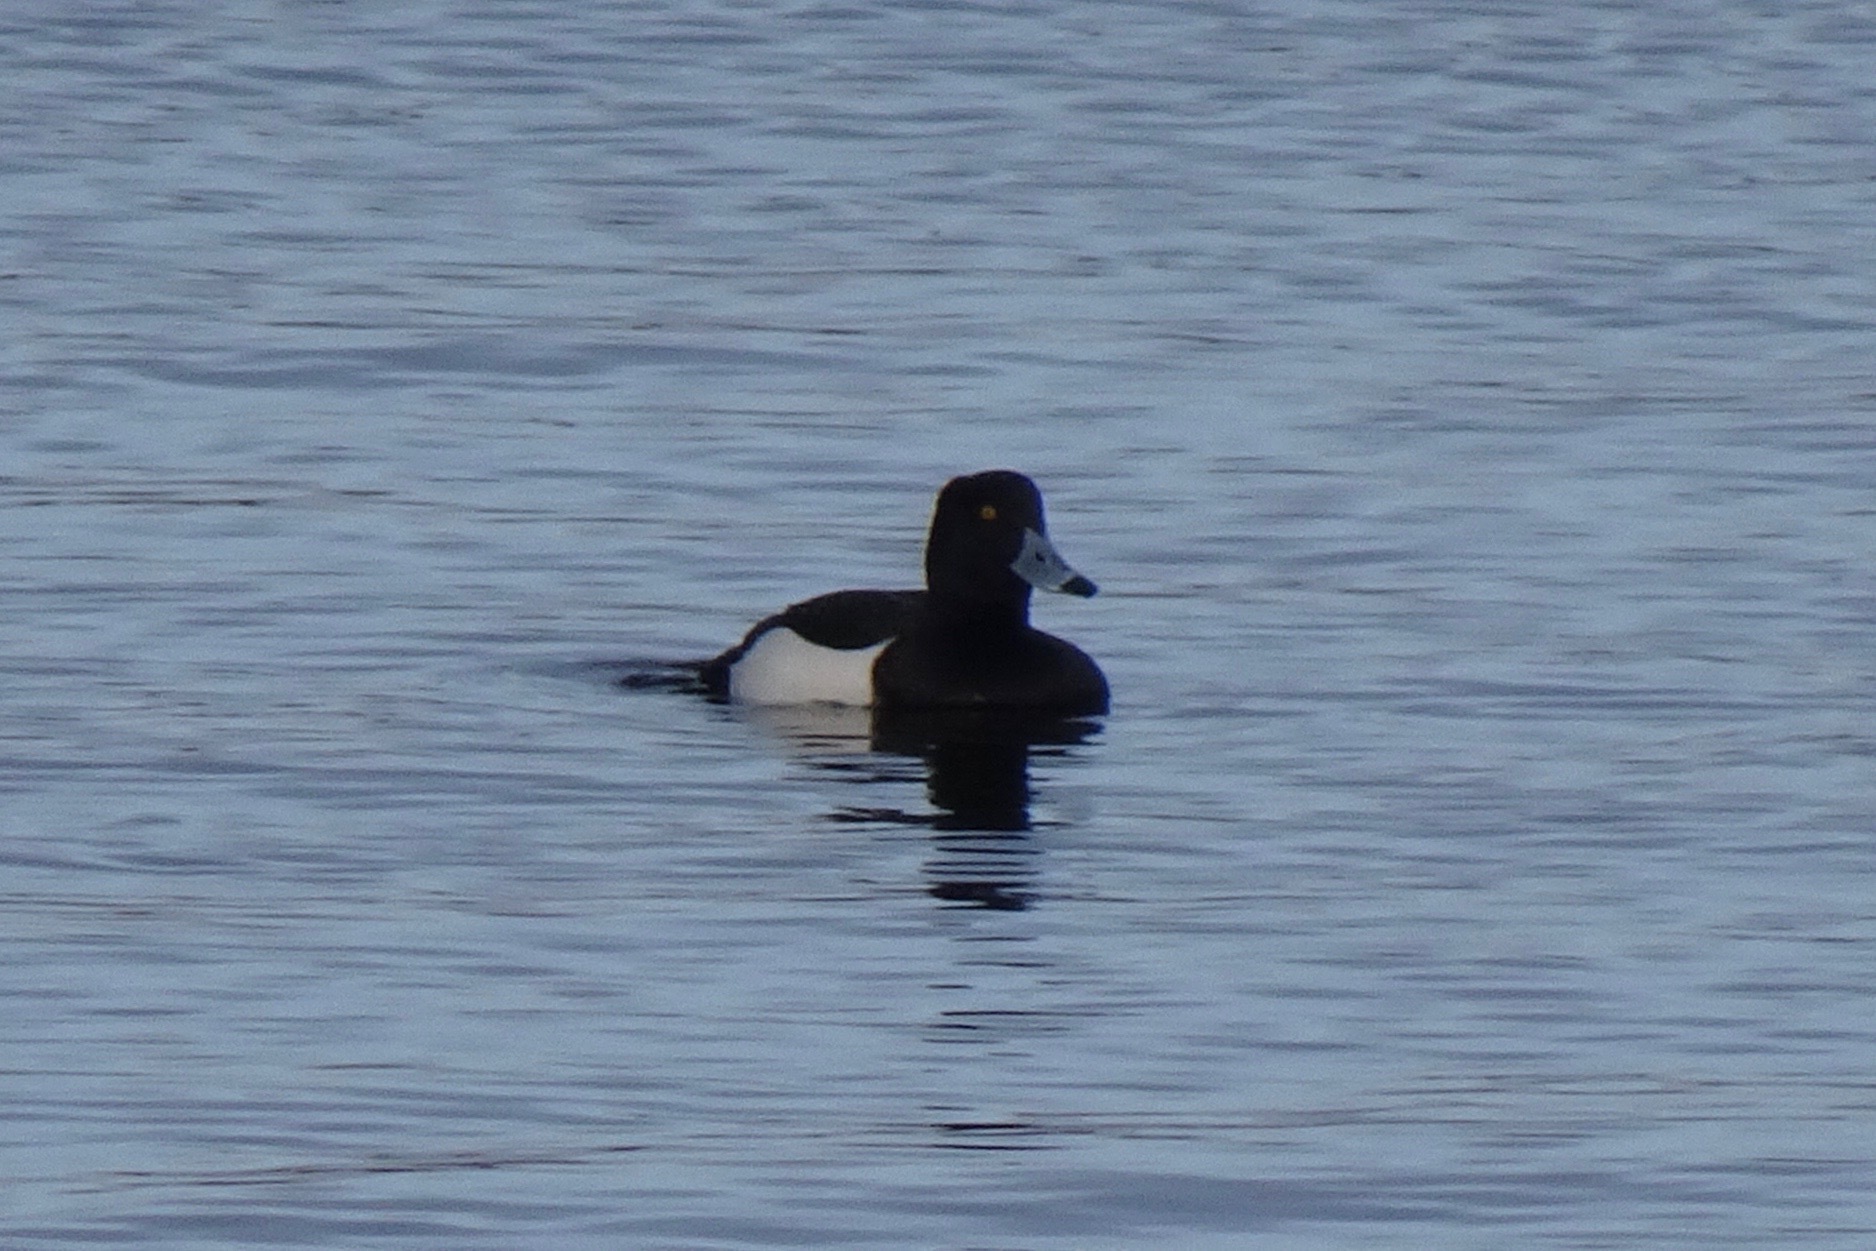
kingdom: Animalia
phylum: Chordata
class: Aves
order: Anseriformes
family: Anatidae
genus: Aythya
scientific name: Aythya fuligula
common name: Tufted duck
